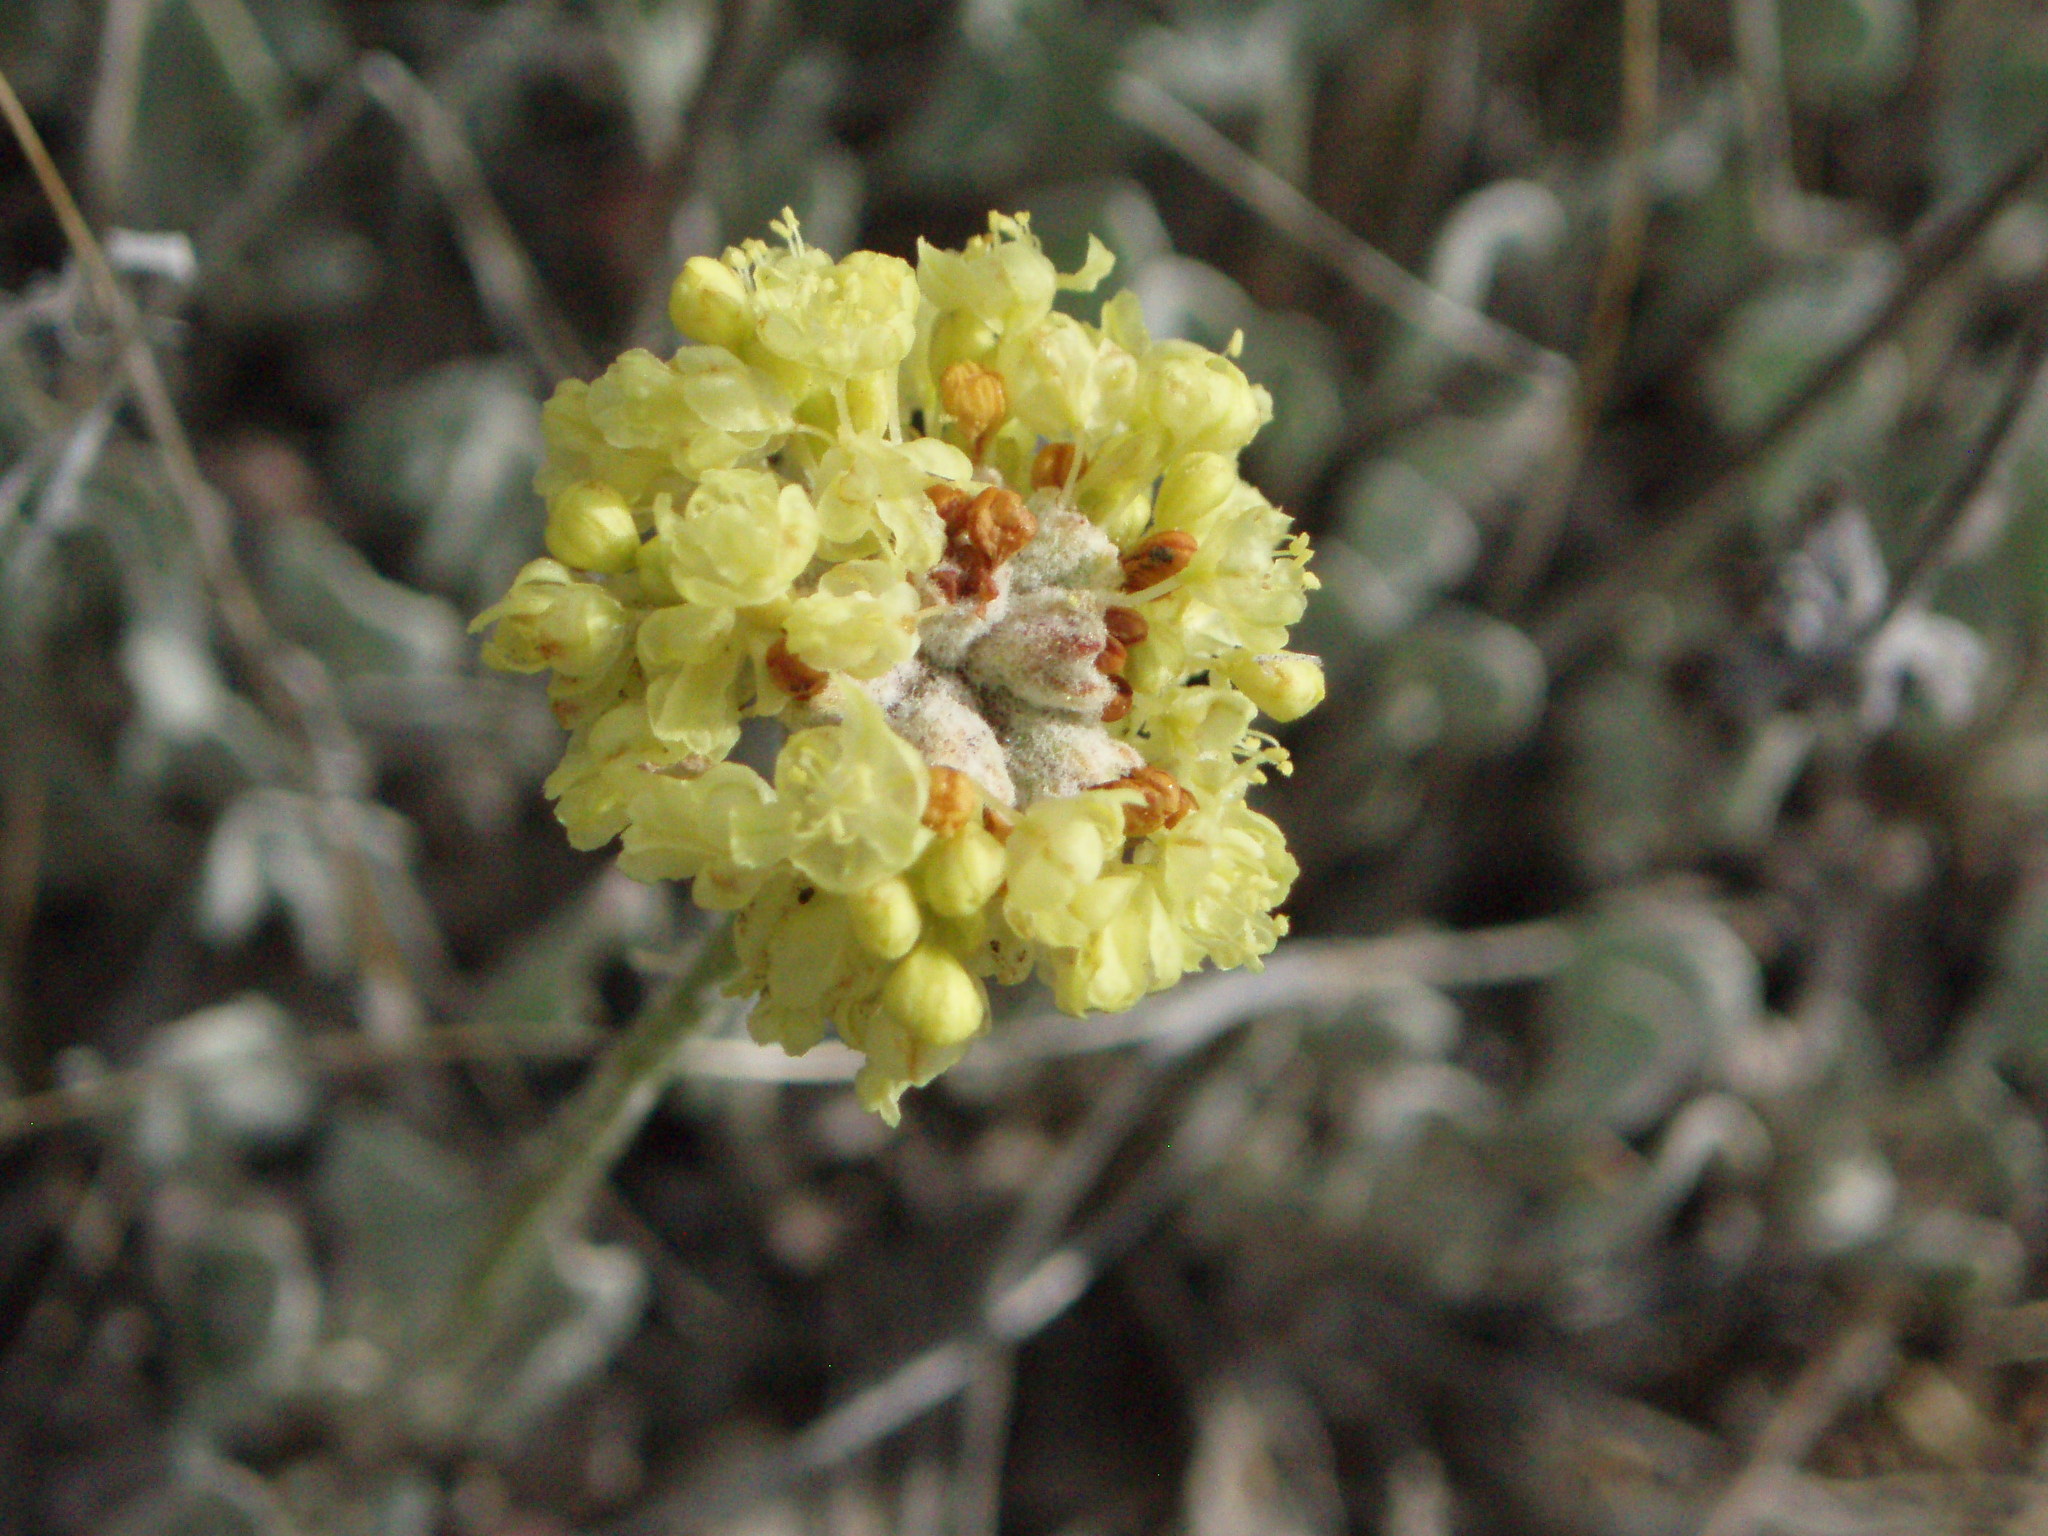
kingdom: Plantae
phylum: Tracheophyta
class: Magnoliopsida
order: Caryophyllales
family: Polygonaceae
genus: Eriogonum
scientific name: Eriogonum ovalifolium
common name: Cushion buckwheat
